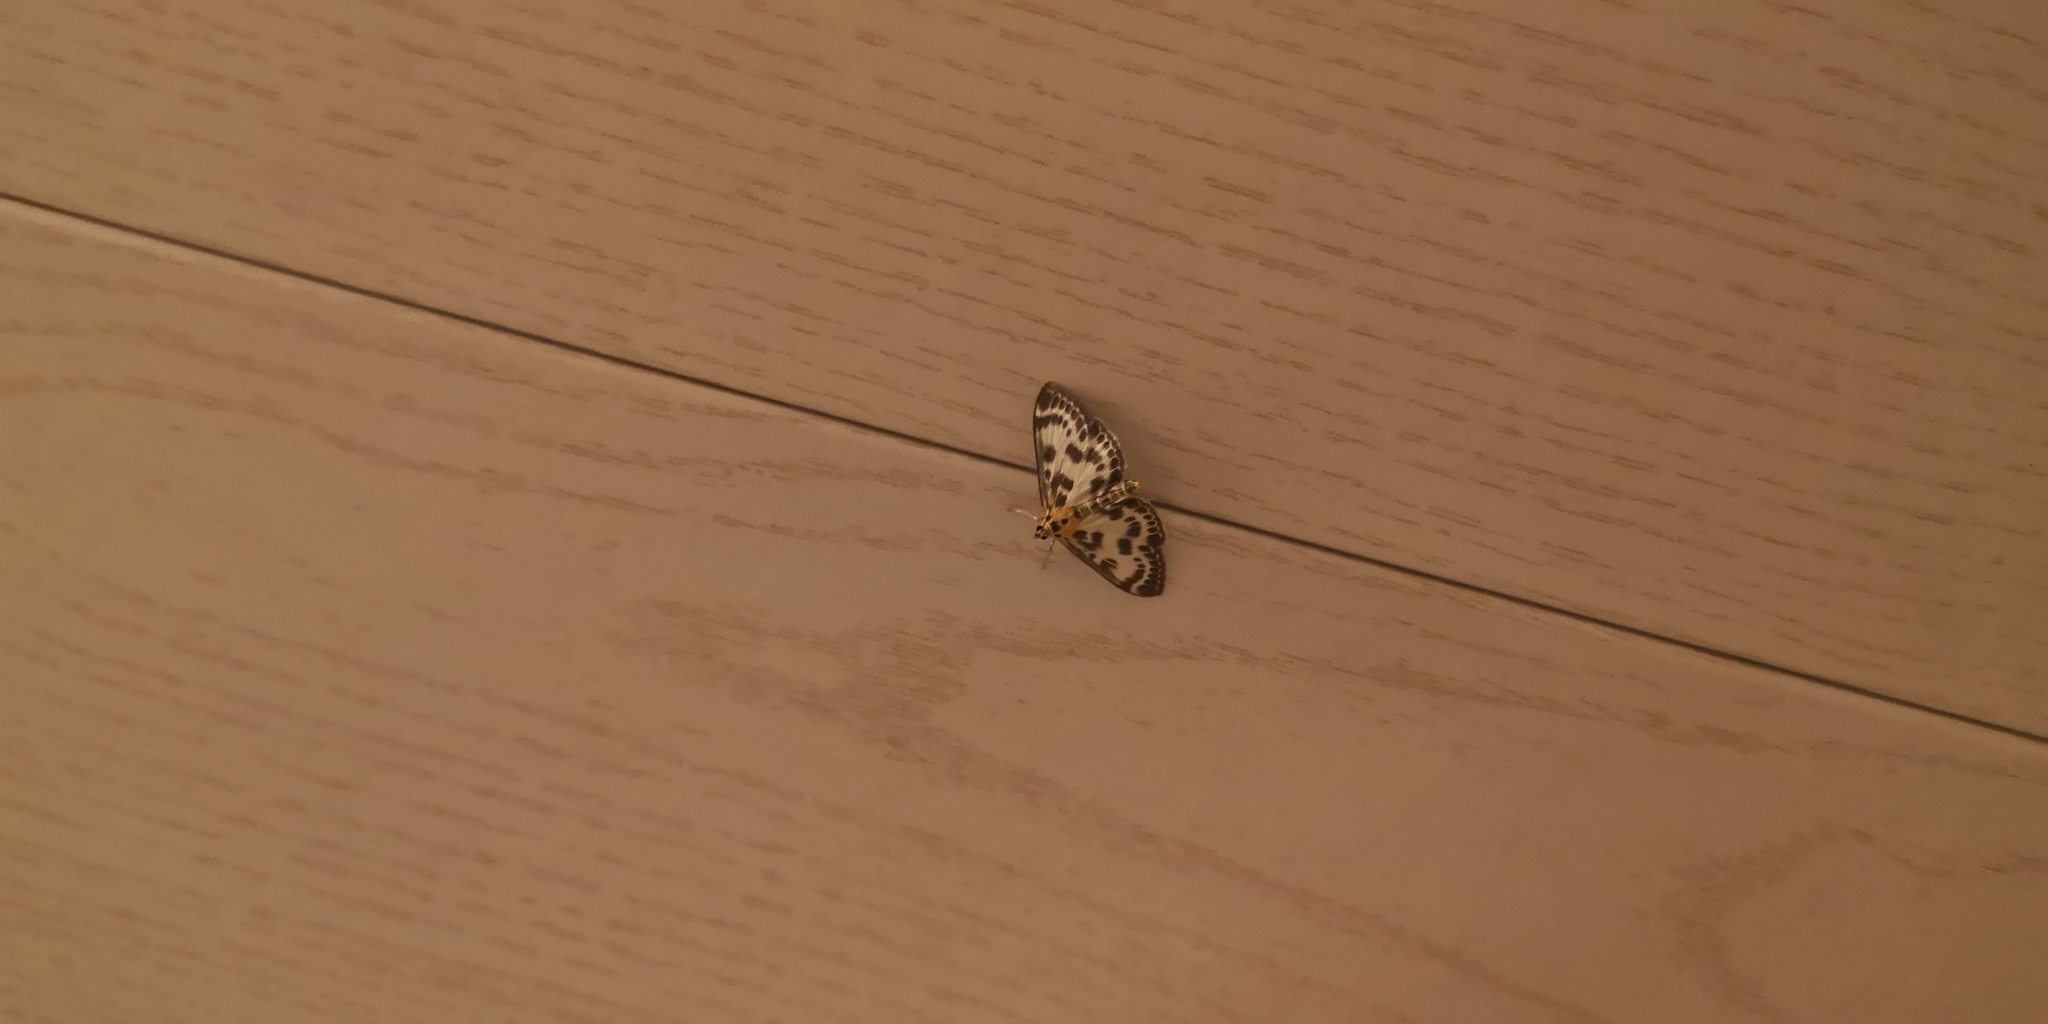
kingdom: Animalia
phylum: Arthropoda
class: Insecta
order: Lepidoptera
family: Crambidae
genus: Anania
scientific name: Anania hortulata
